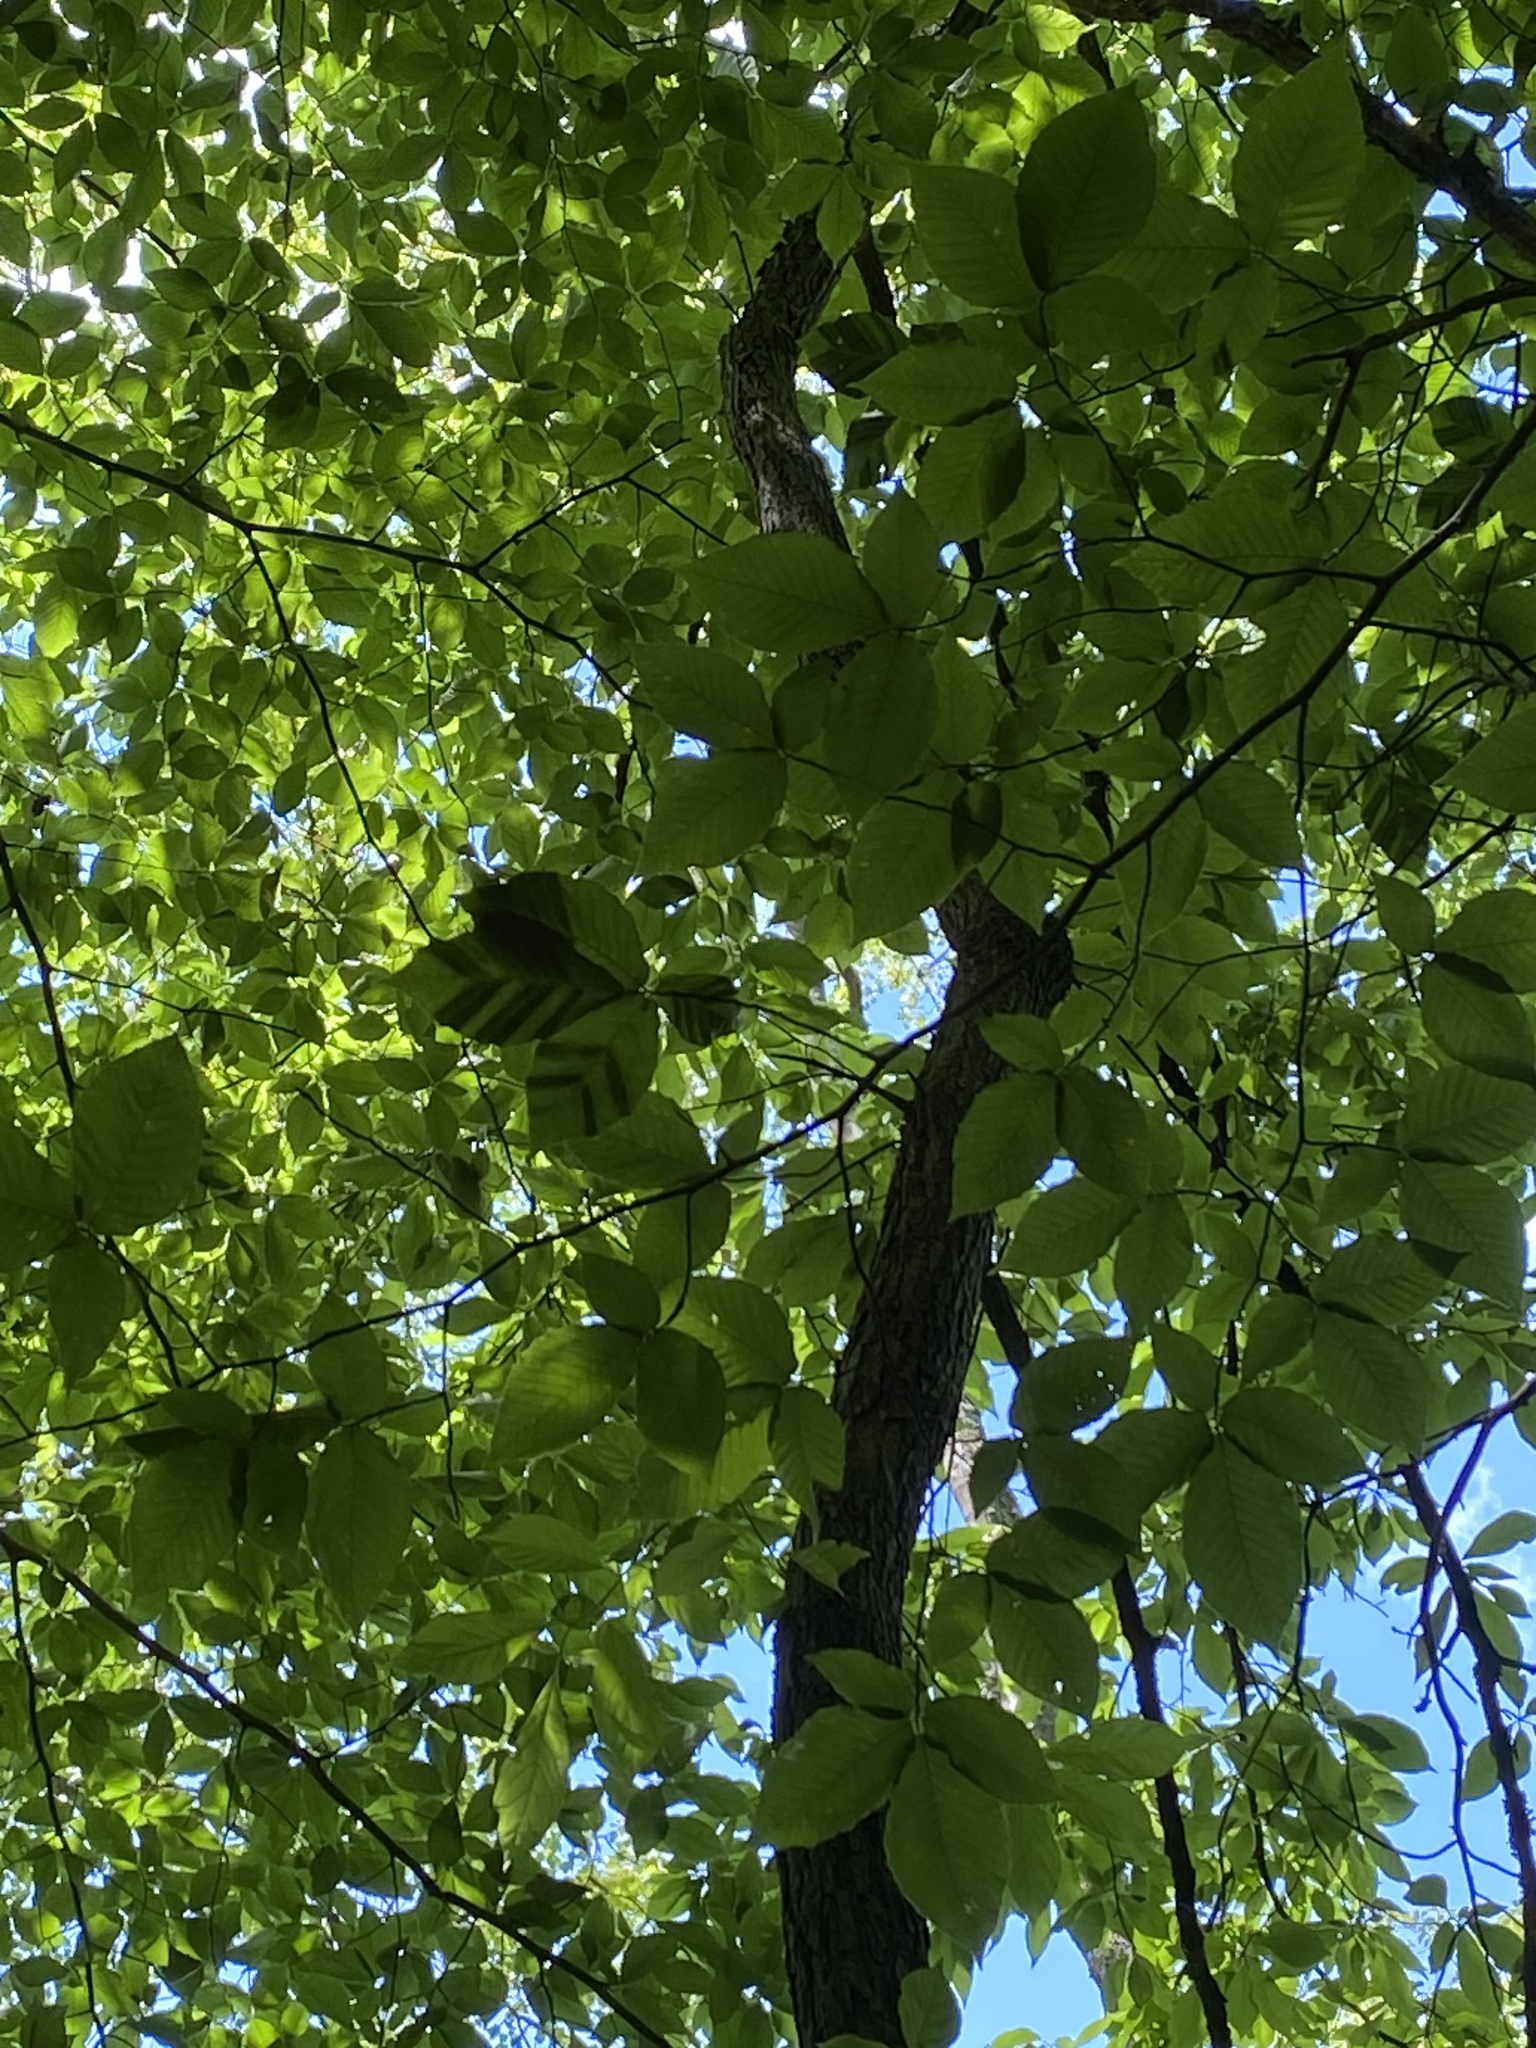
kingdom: Animalia
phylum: Nematoda
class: Chromadorea
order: Rhabditida
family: Anguinidae
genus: Litylenchus
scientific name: Litylenchus crenatae
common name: Beech leaf disease
